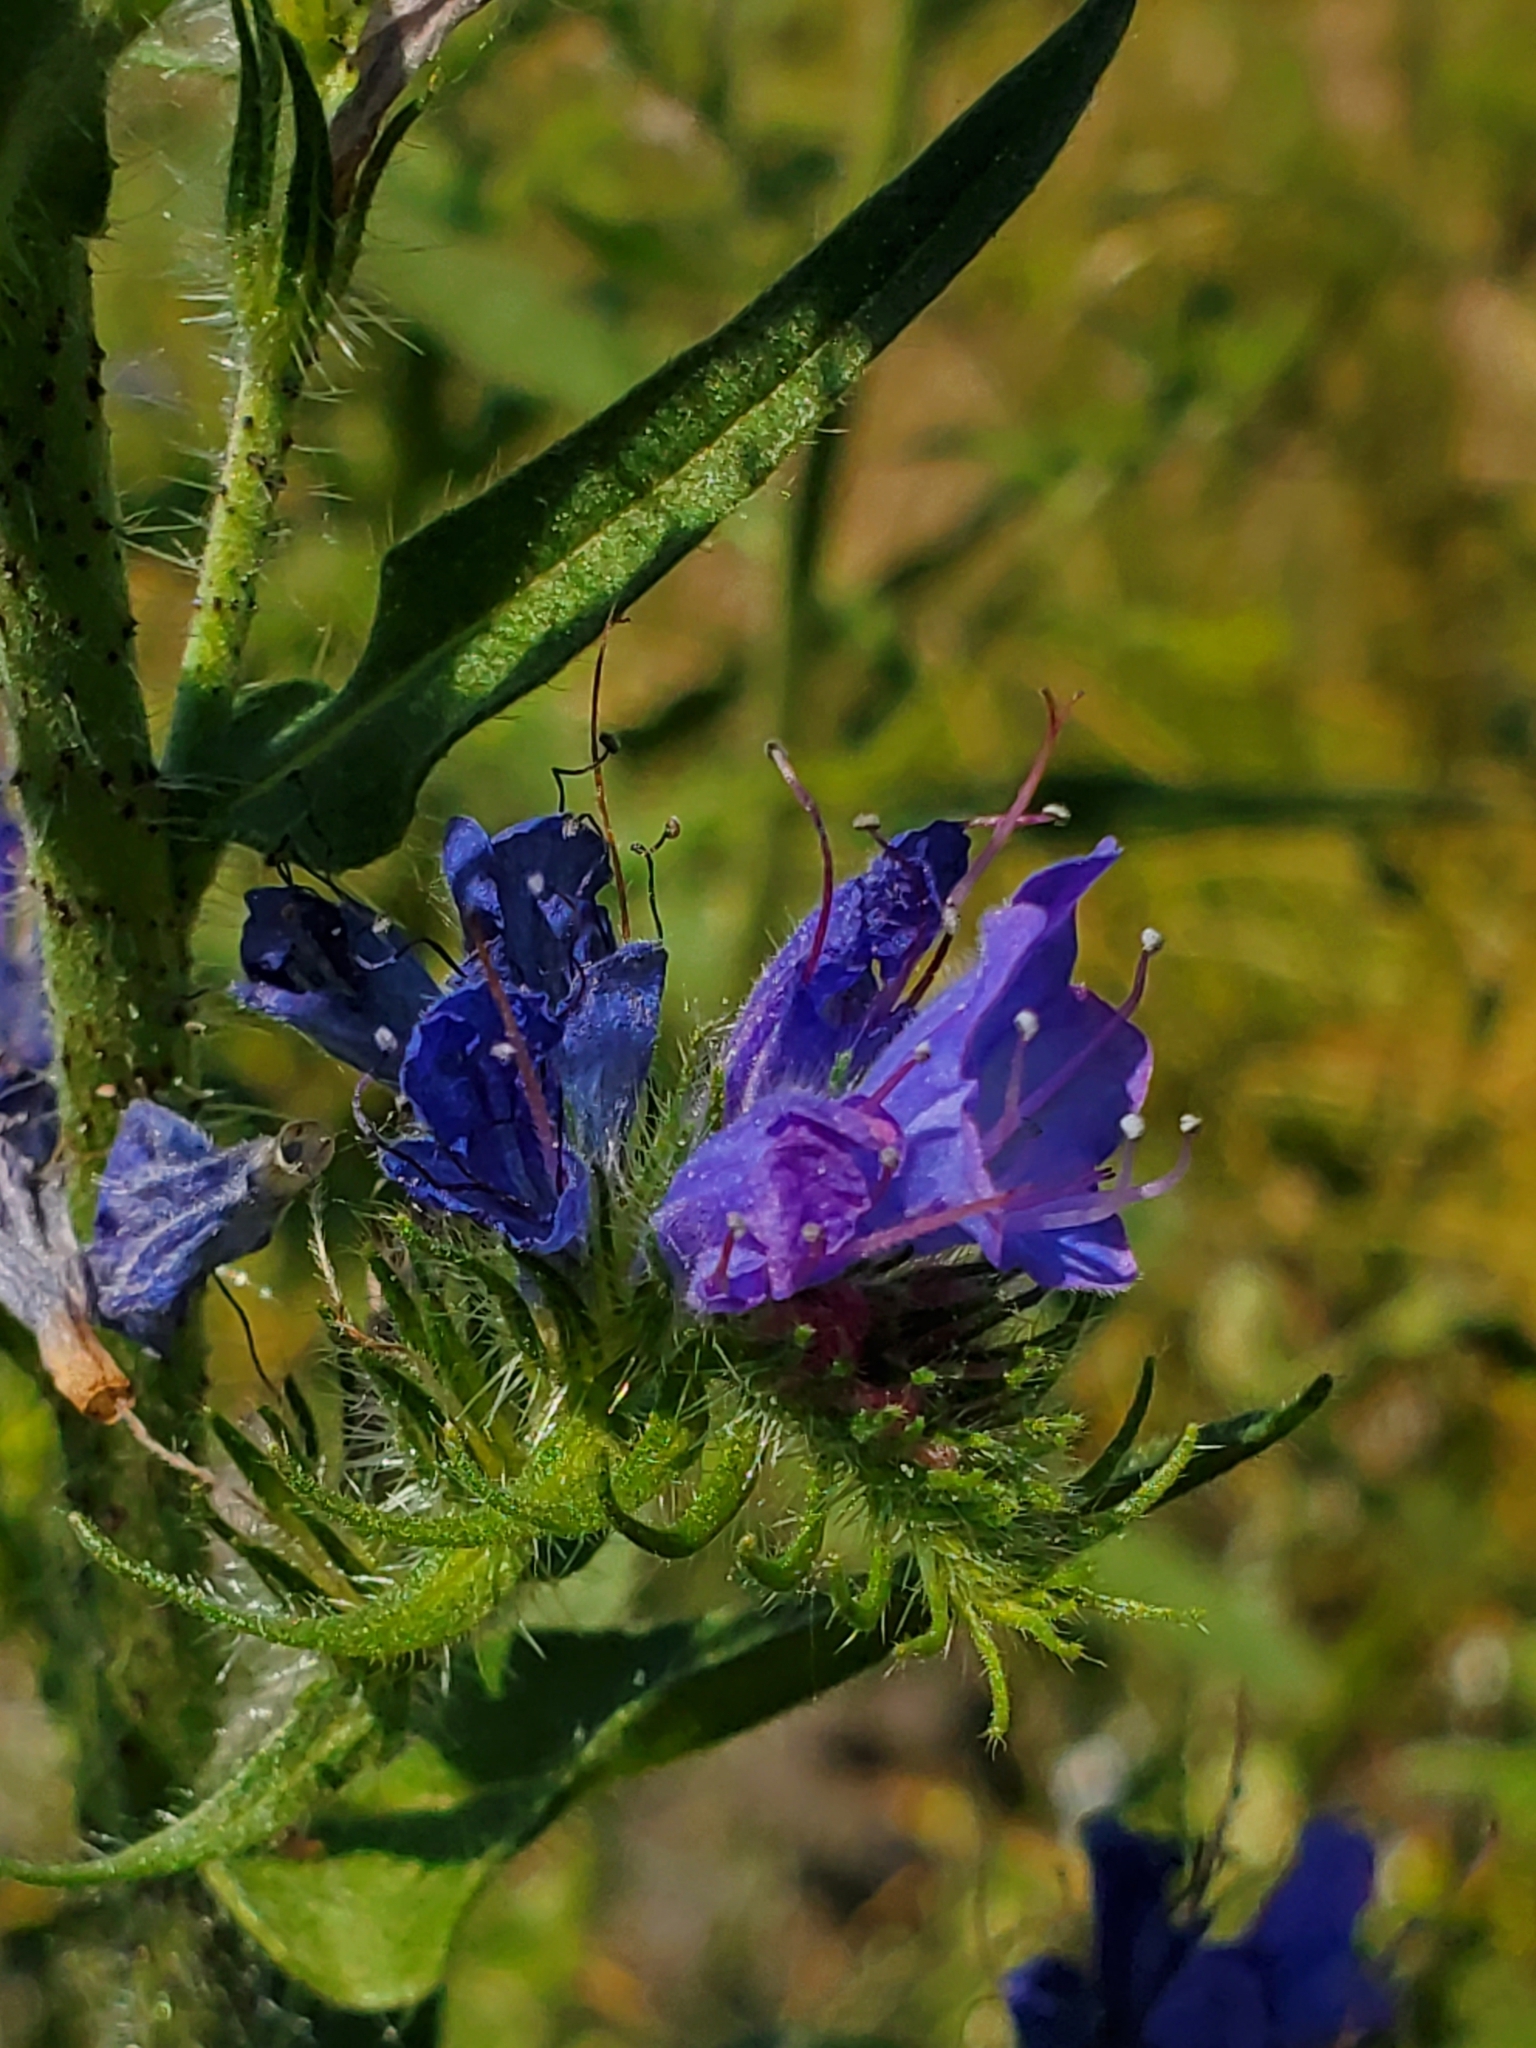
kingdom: Plantae
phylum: Tracheophyta
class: Magnoliopsida
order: Boraginales
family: Boraginaceae
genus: Echium
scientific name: Echium vulgare
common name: Common viper's bugloss
